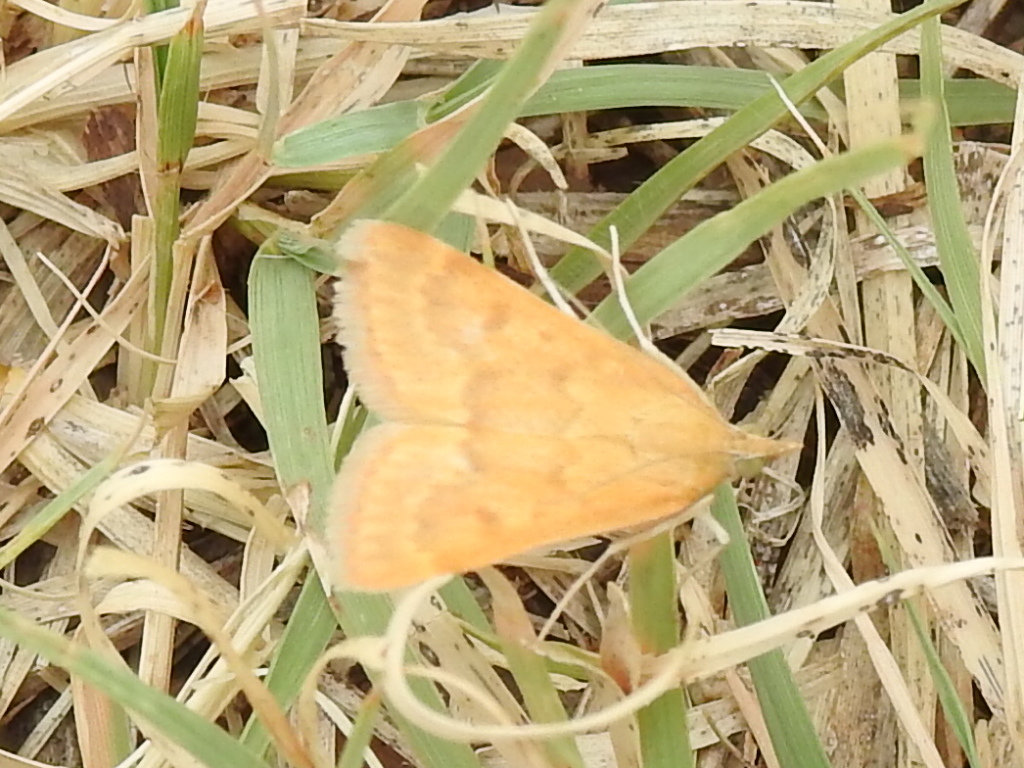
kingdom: Animalia
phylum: Arthropoda
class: Insecta
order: Lepidoptera
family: Crambidae
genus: Achyra
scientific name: Achyra rantalis
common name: Garden webworm
